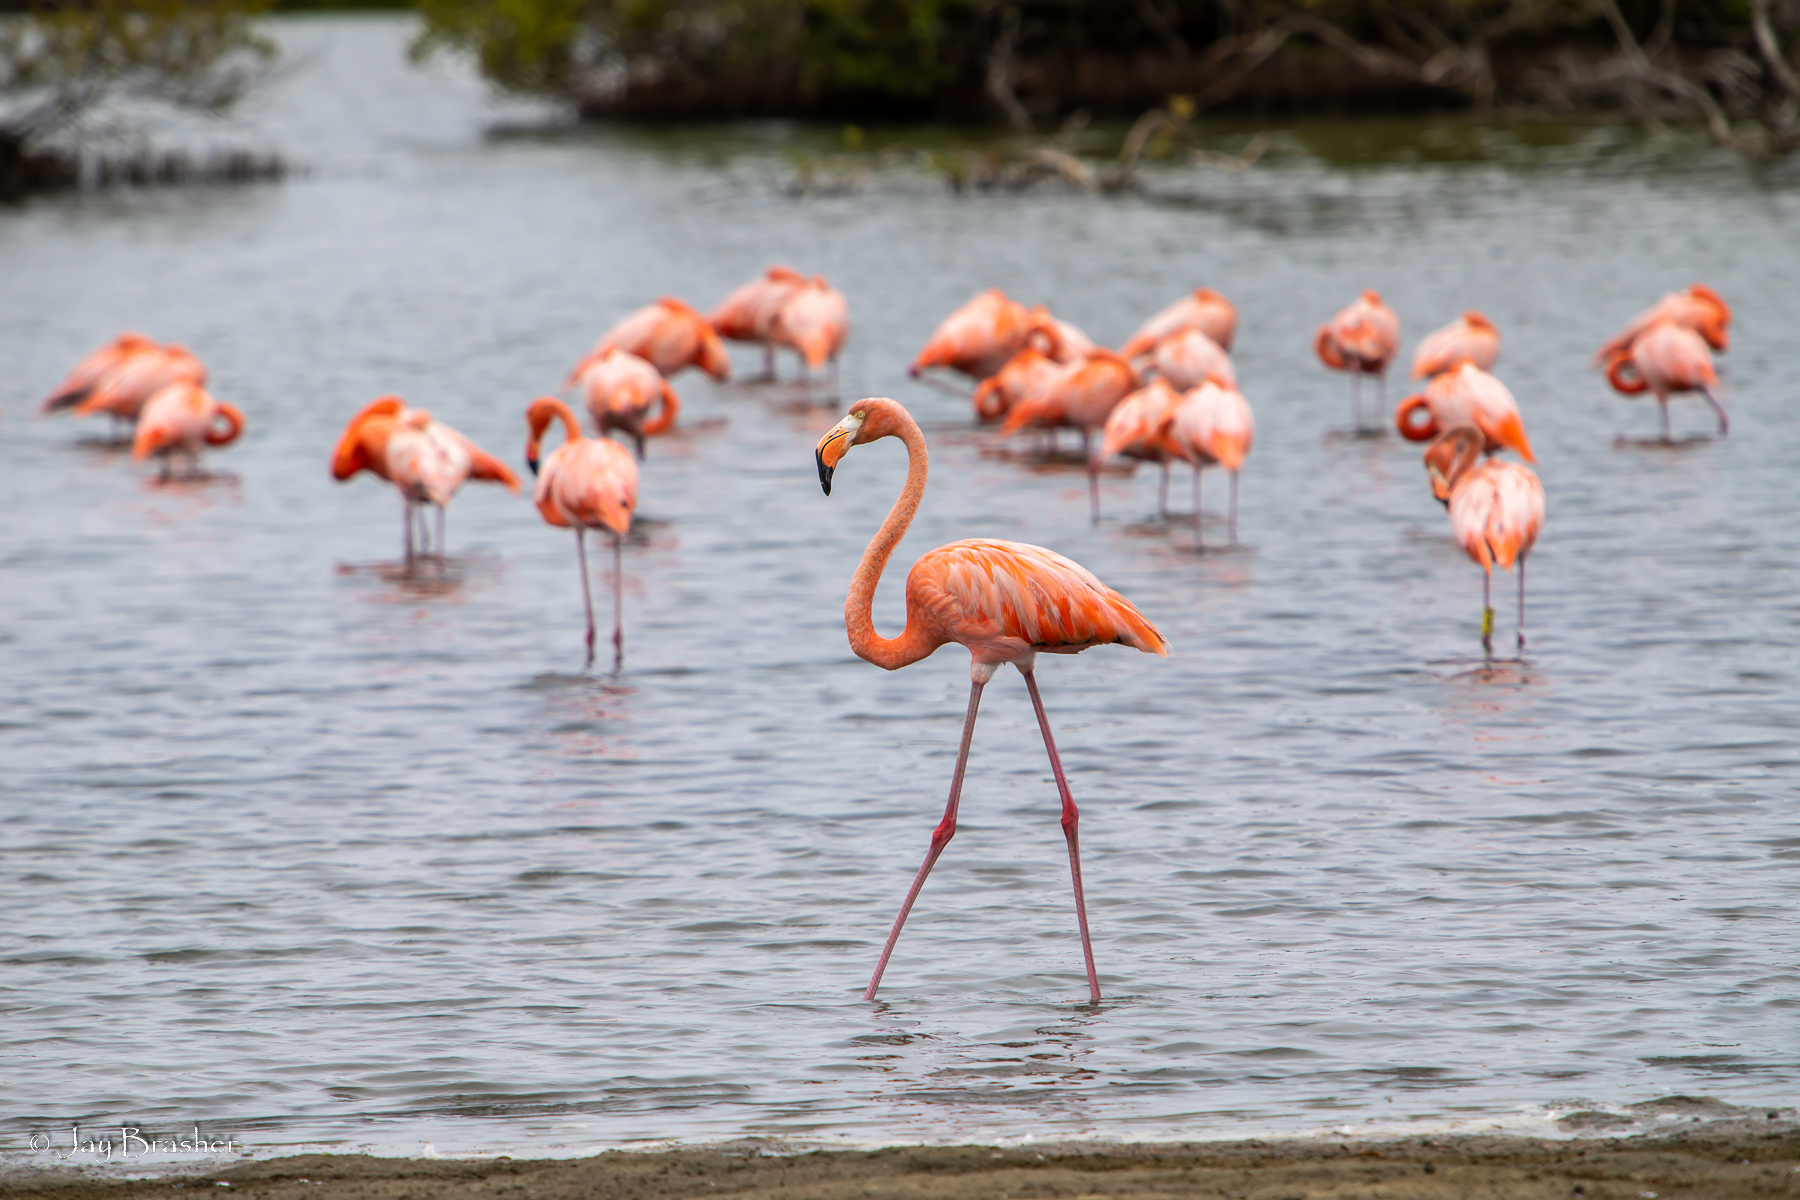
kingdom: Animalia
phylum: Chordata
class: Aves
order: Phoenicopteriformes
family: Phoenicopteridae
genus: Phoenicopterus
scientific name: Phoenicopterus ruber
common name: American flamingo
